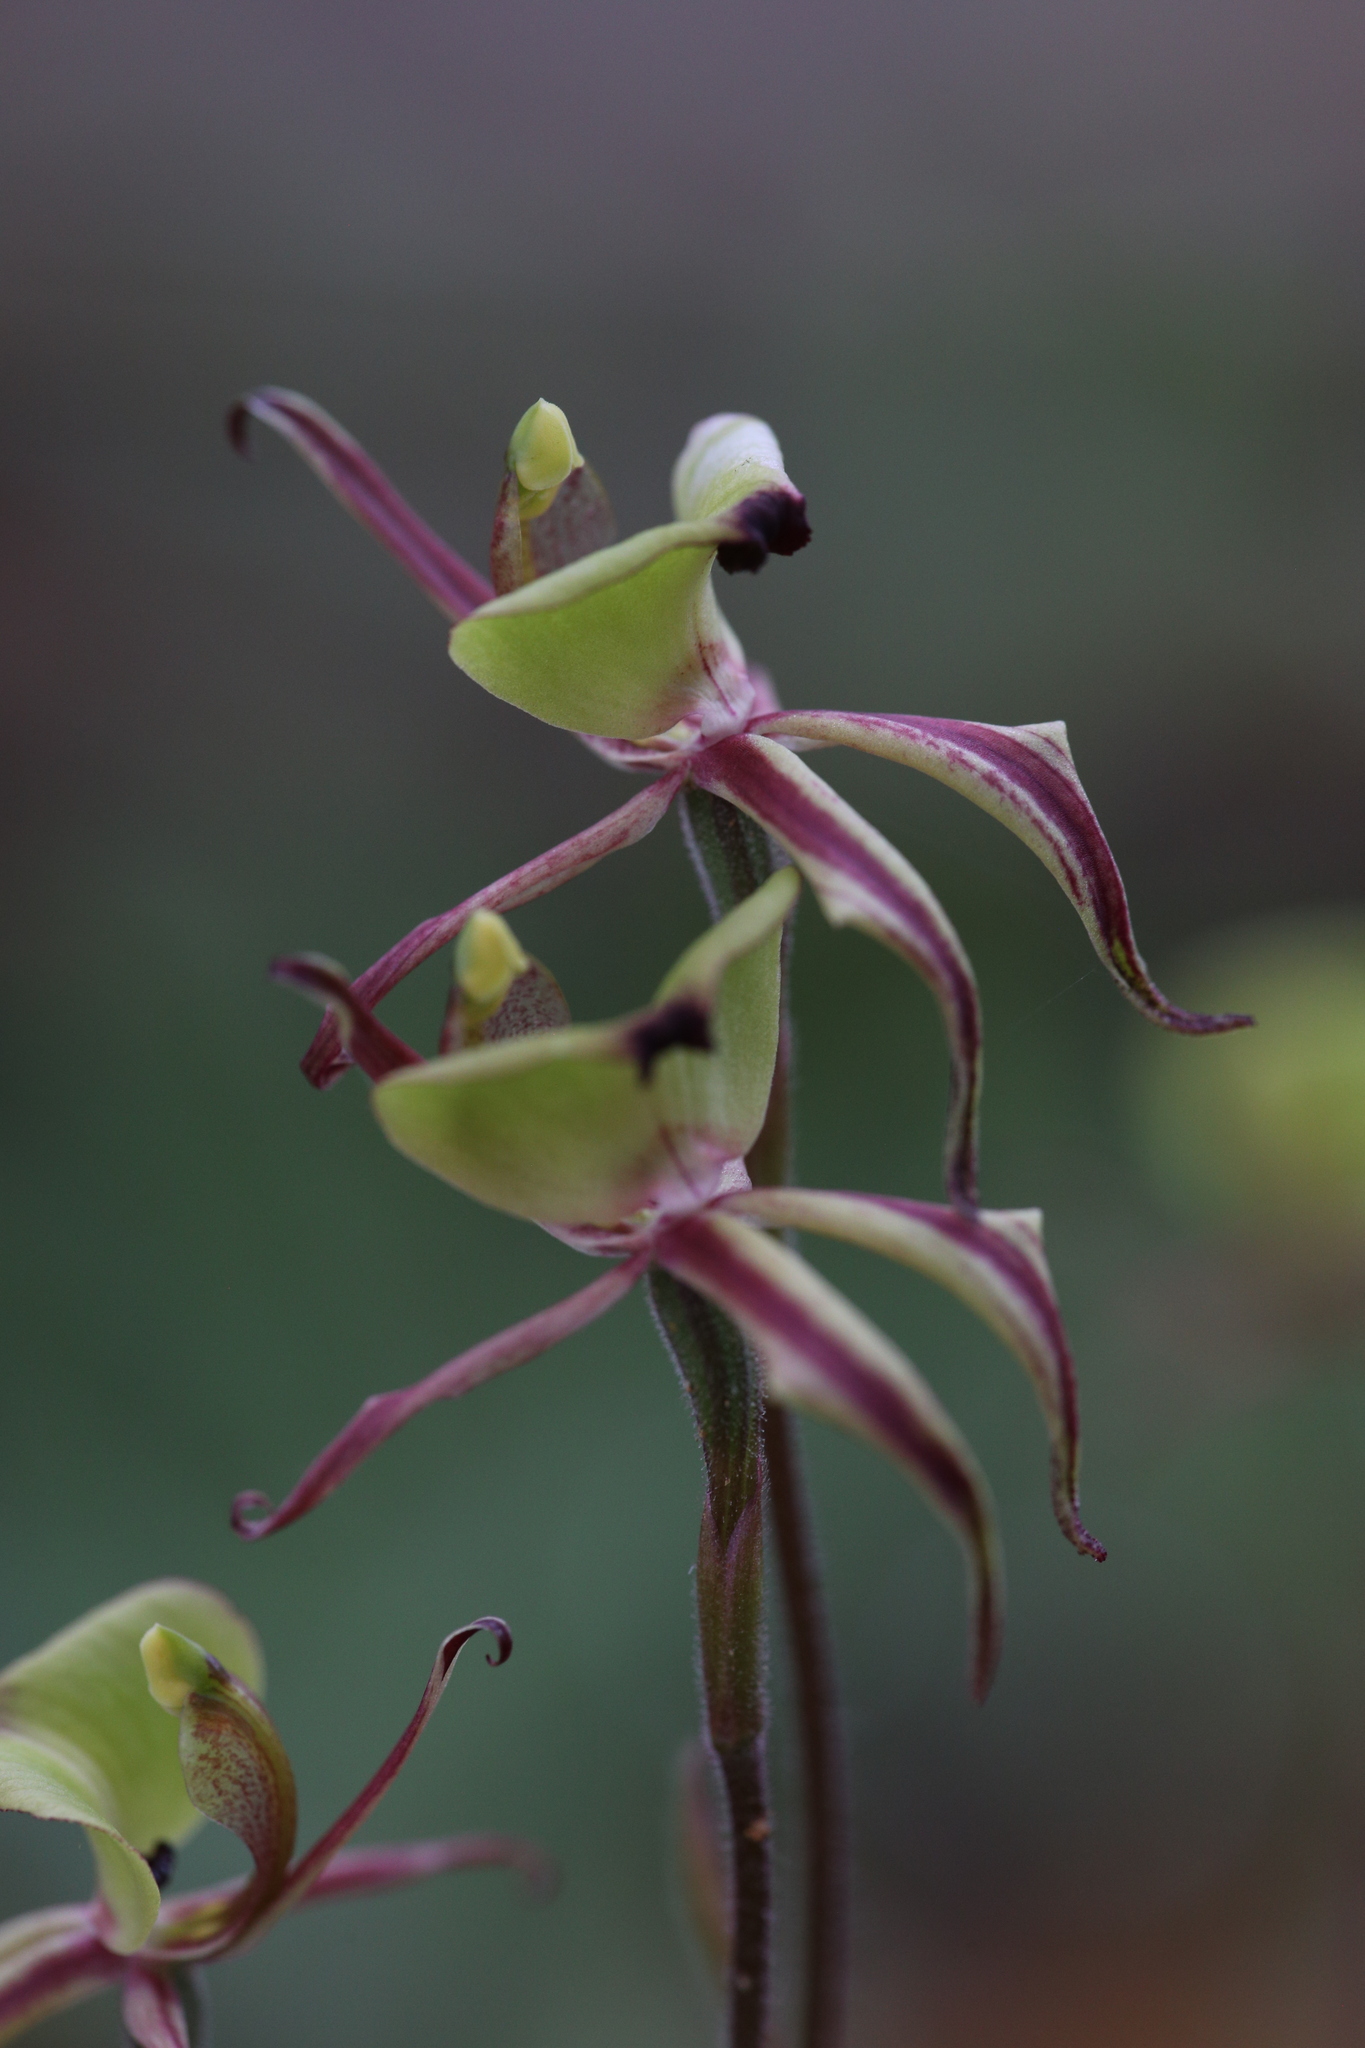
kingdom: Plantae
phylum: Tracheophyta
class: Liliopsida
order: Asparagales
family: Orchidaceae
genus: Caladenia
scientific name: Caladenia roei
